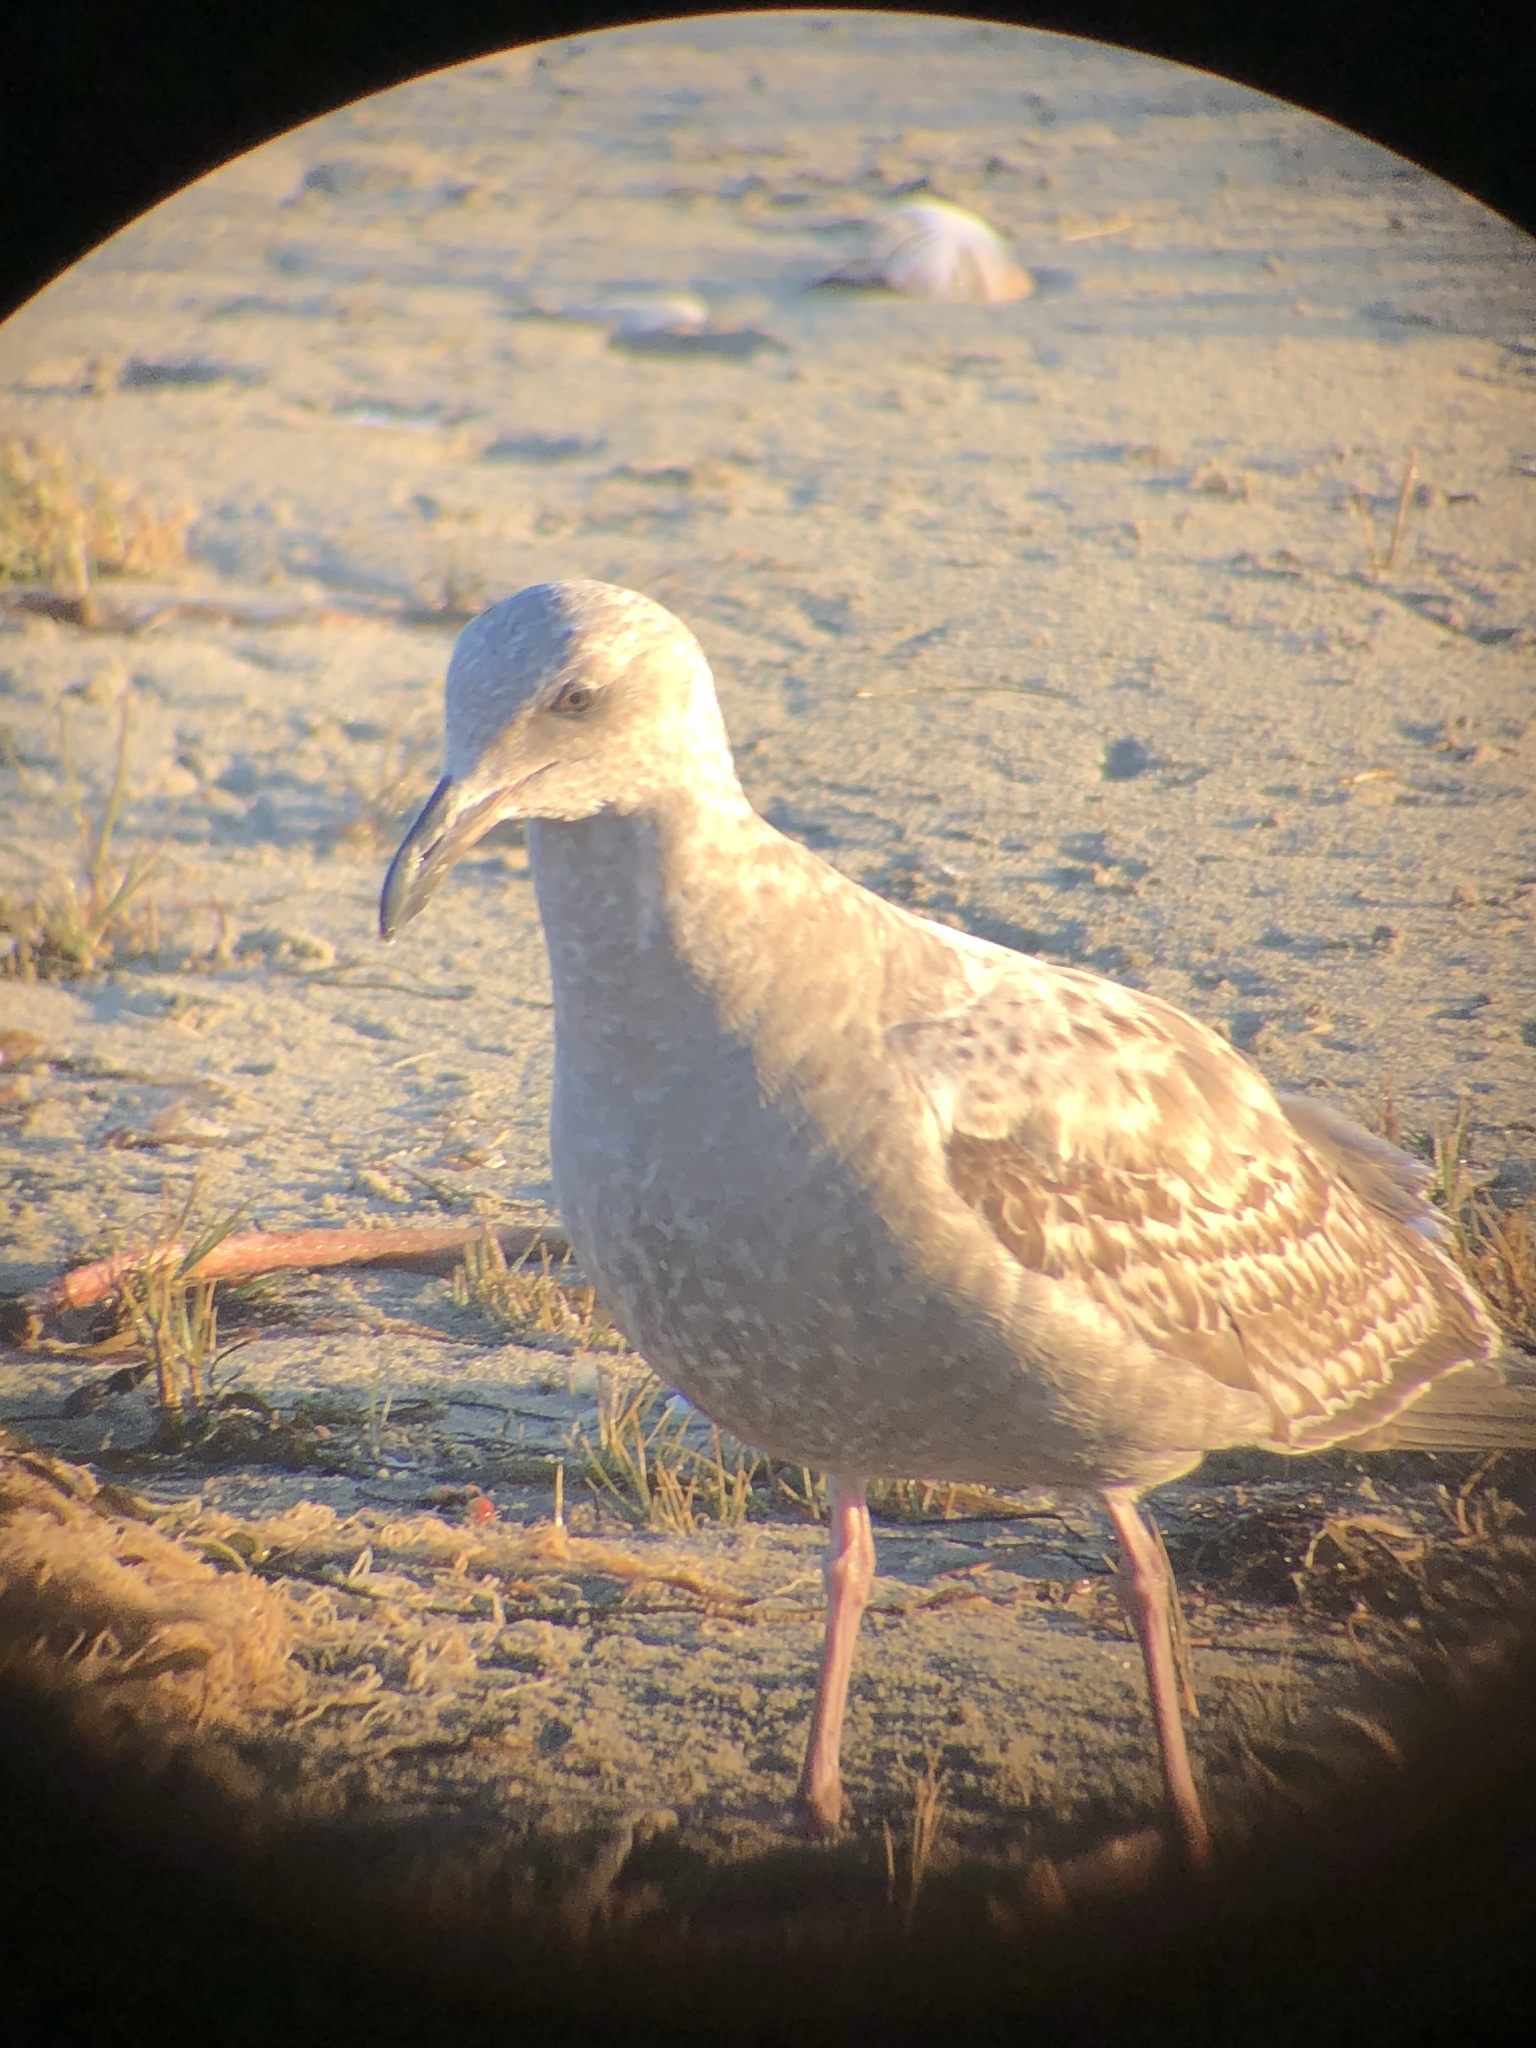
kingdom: Animalia
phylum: Chordata
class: Aves
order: Charadriiformes
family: Laridae
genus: Larus
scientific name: Larus argentatus
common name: Herring gull
